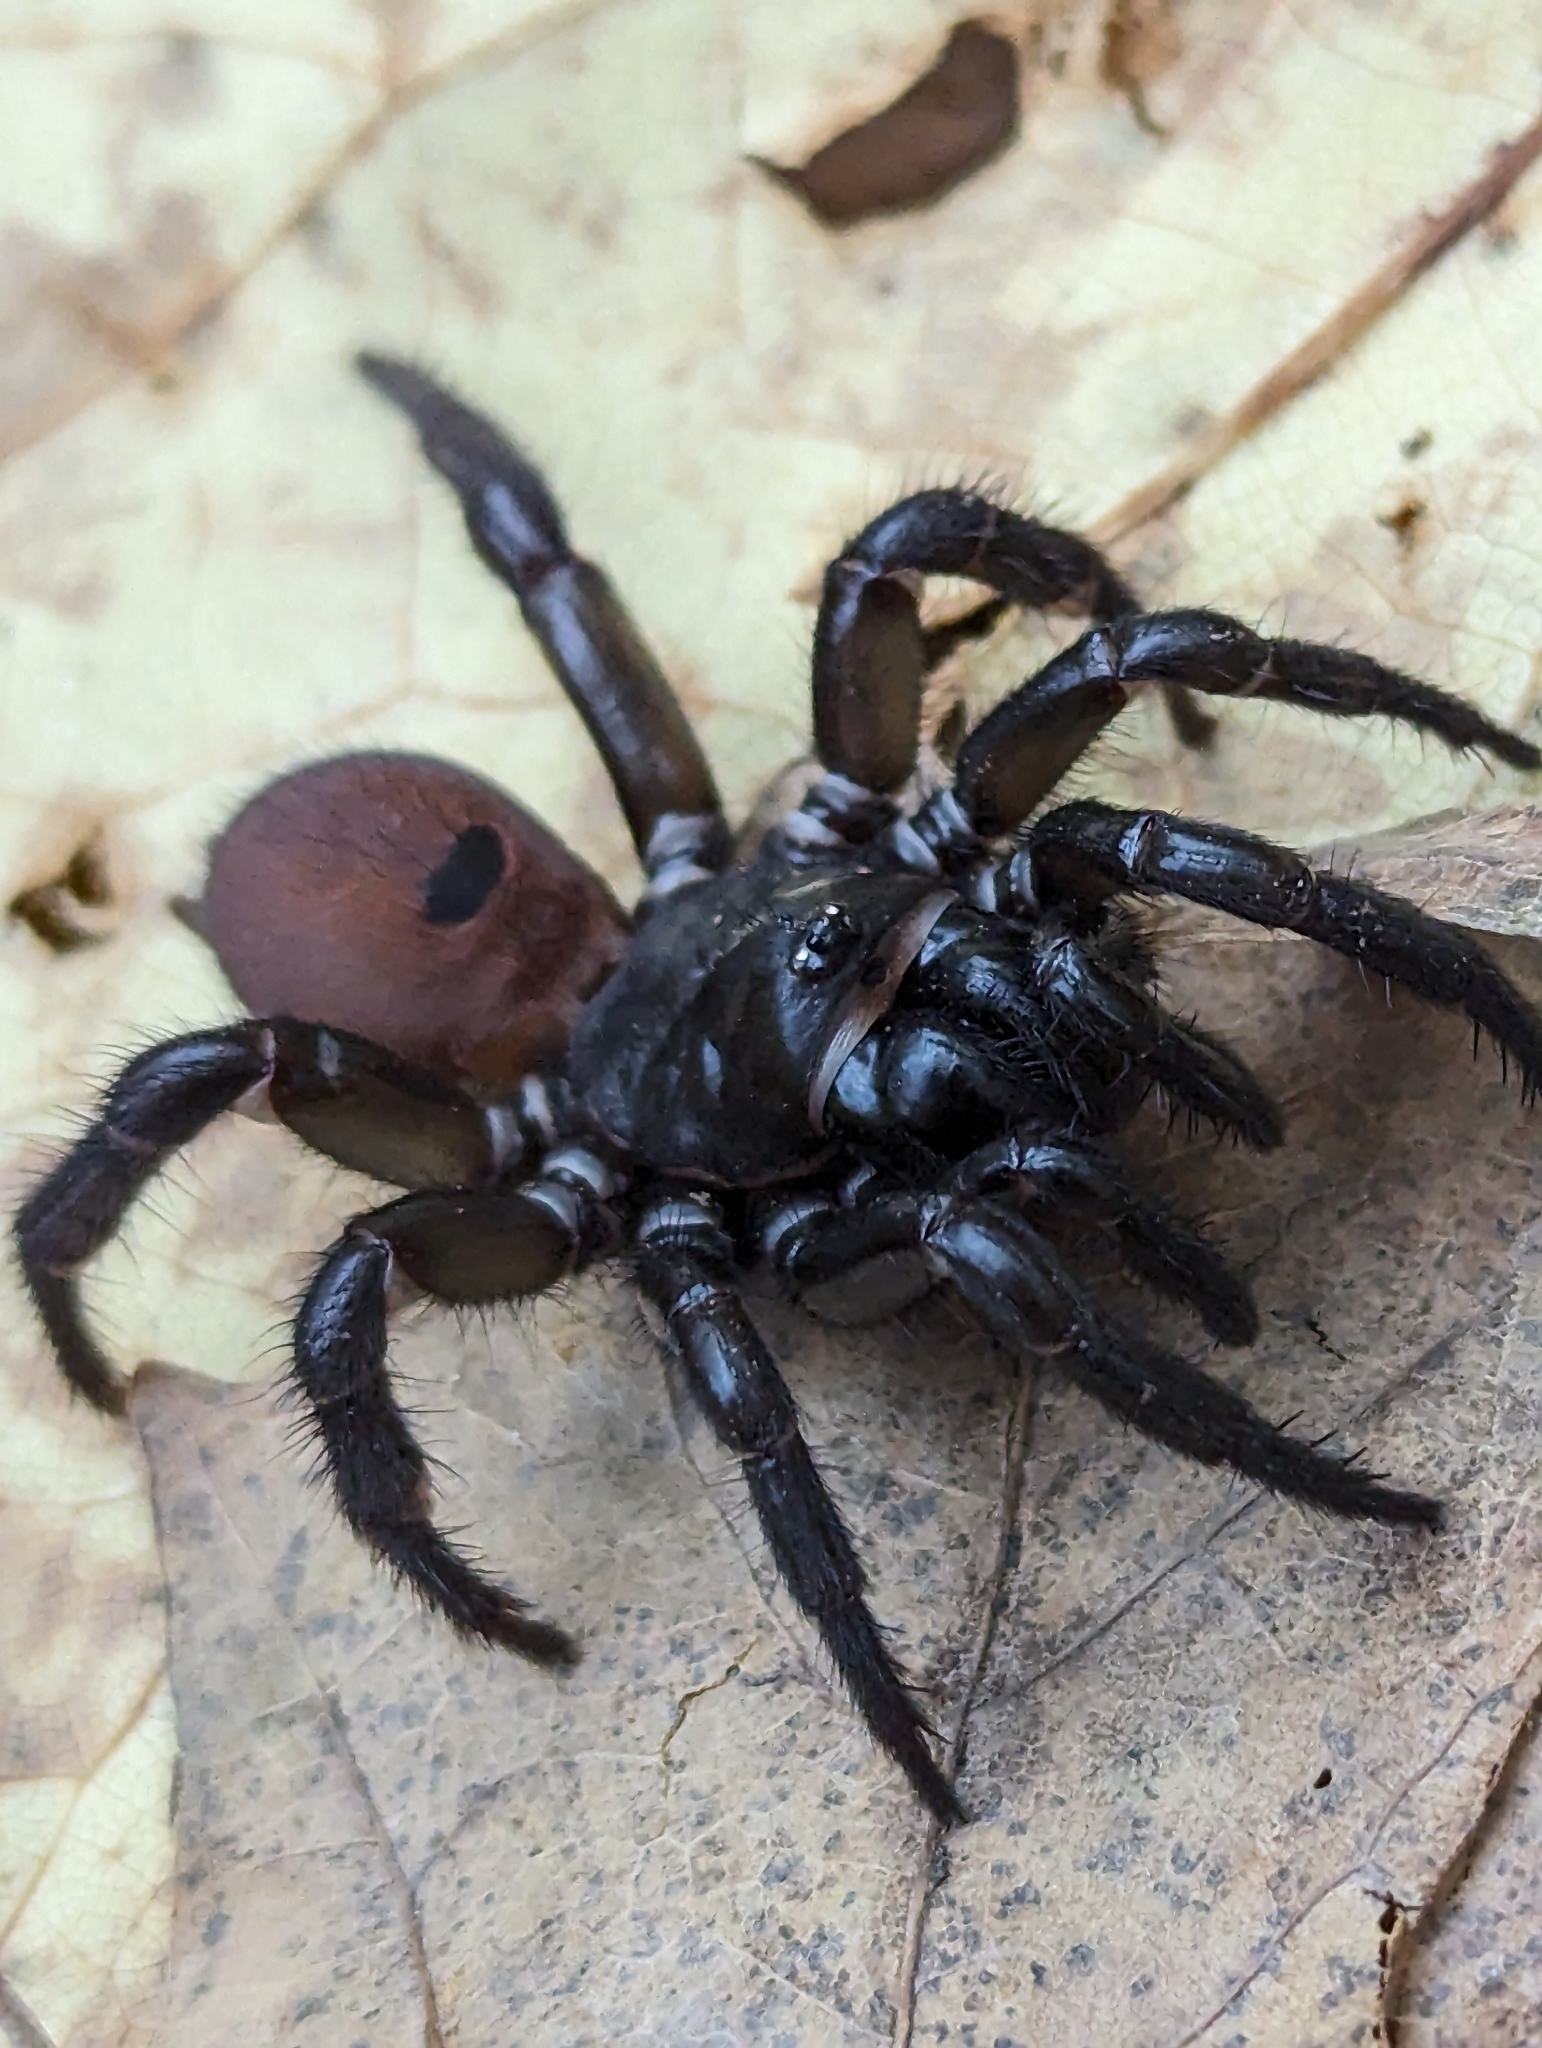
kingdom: Animalia
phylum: Arthropoda
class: Arachnida
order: Araneae
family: Antrodiaetidae
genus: Antrodiaetus
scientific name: Antrodiaetus unicolor
